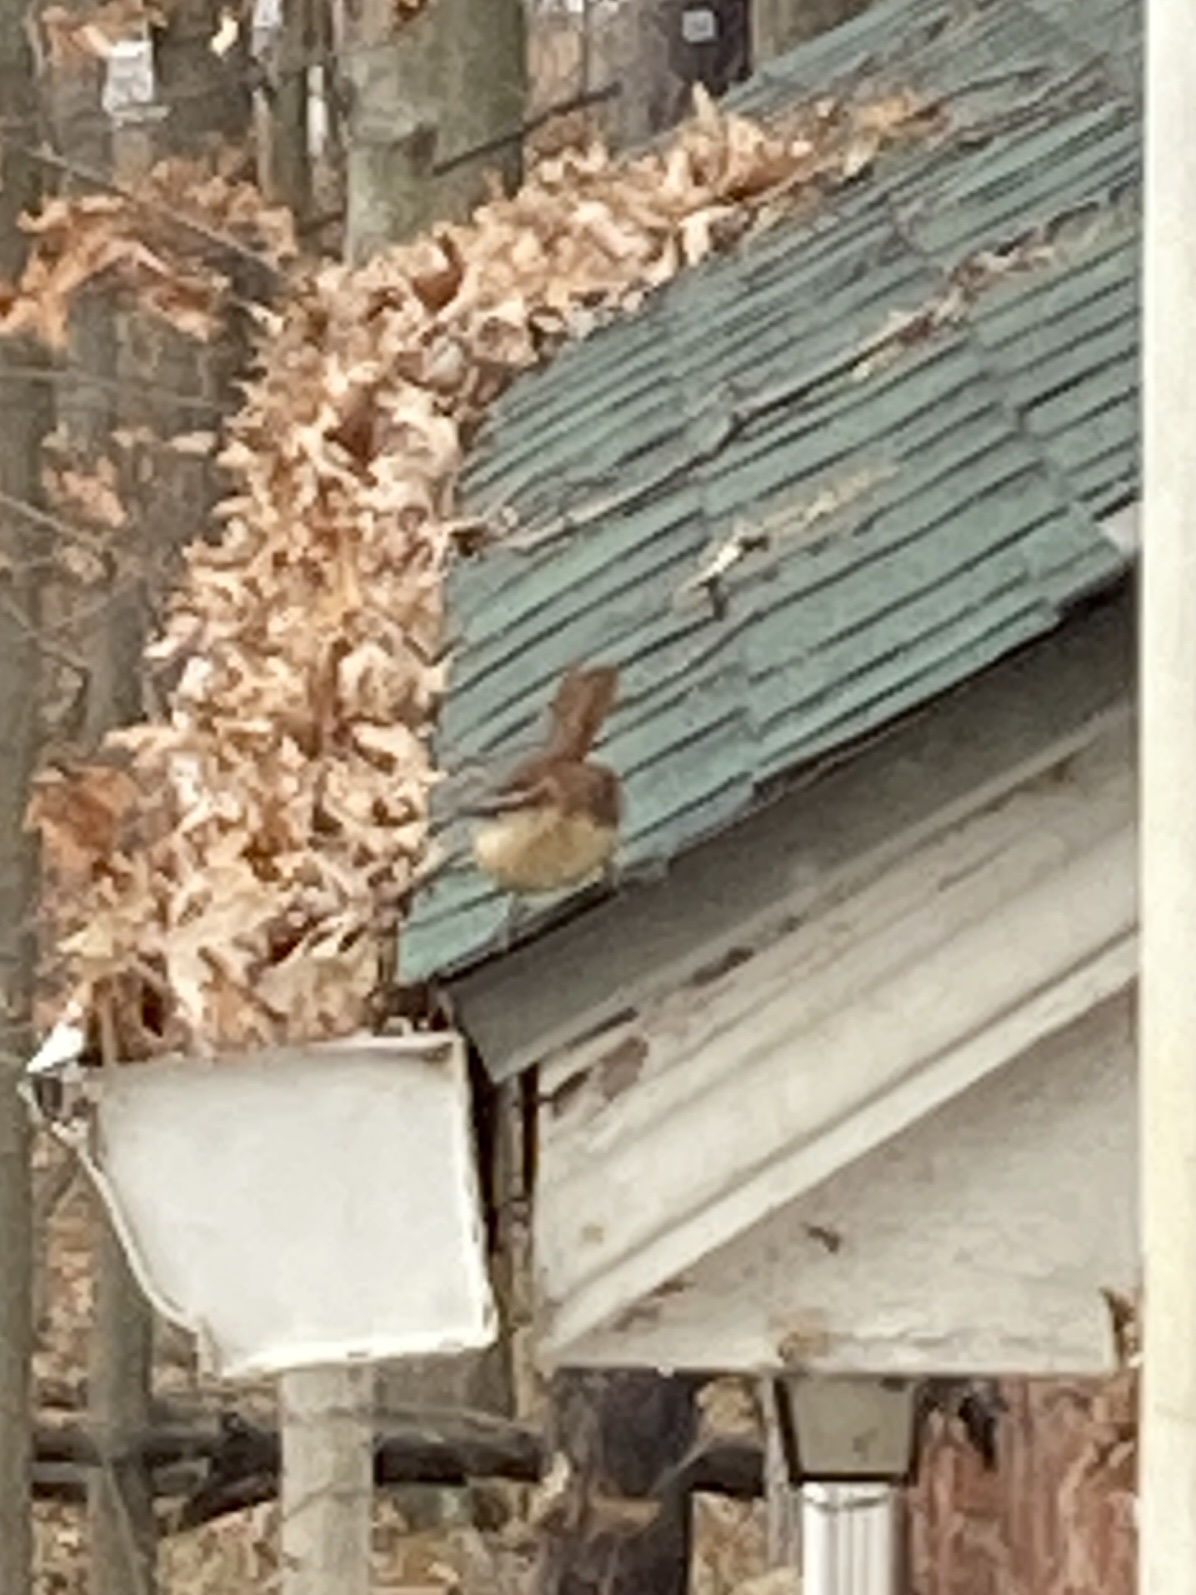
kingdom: Animalia
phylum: Chordata
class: Aves
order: Passeriformes
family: Troglodytidae
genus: Thryothorus
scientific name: Thryothorus ludovicianus
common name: Carolina wren
